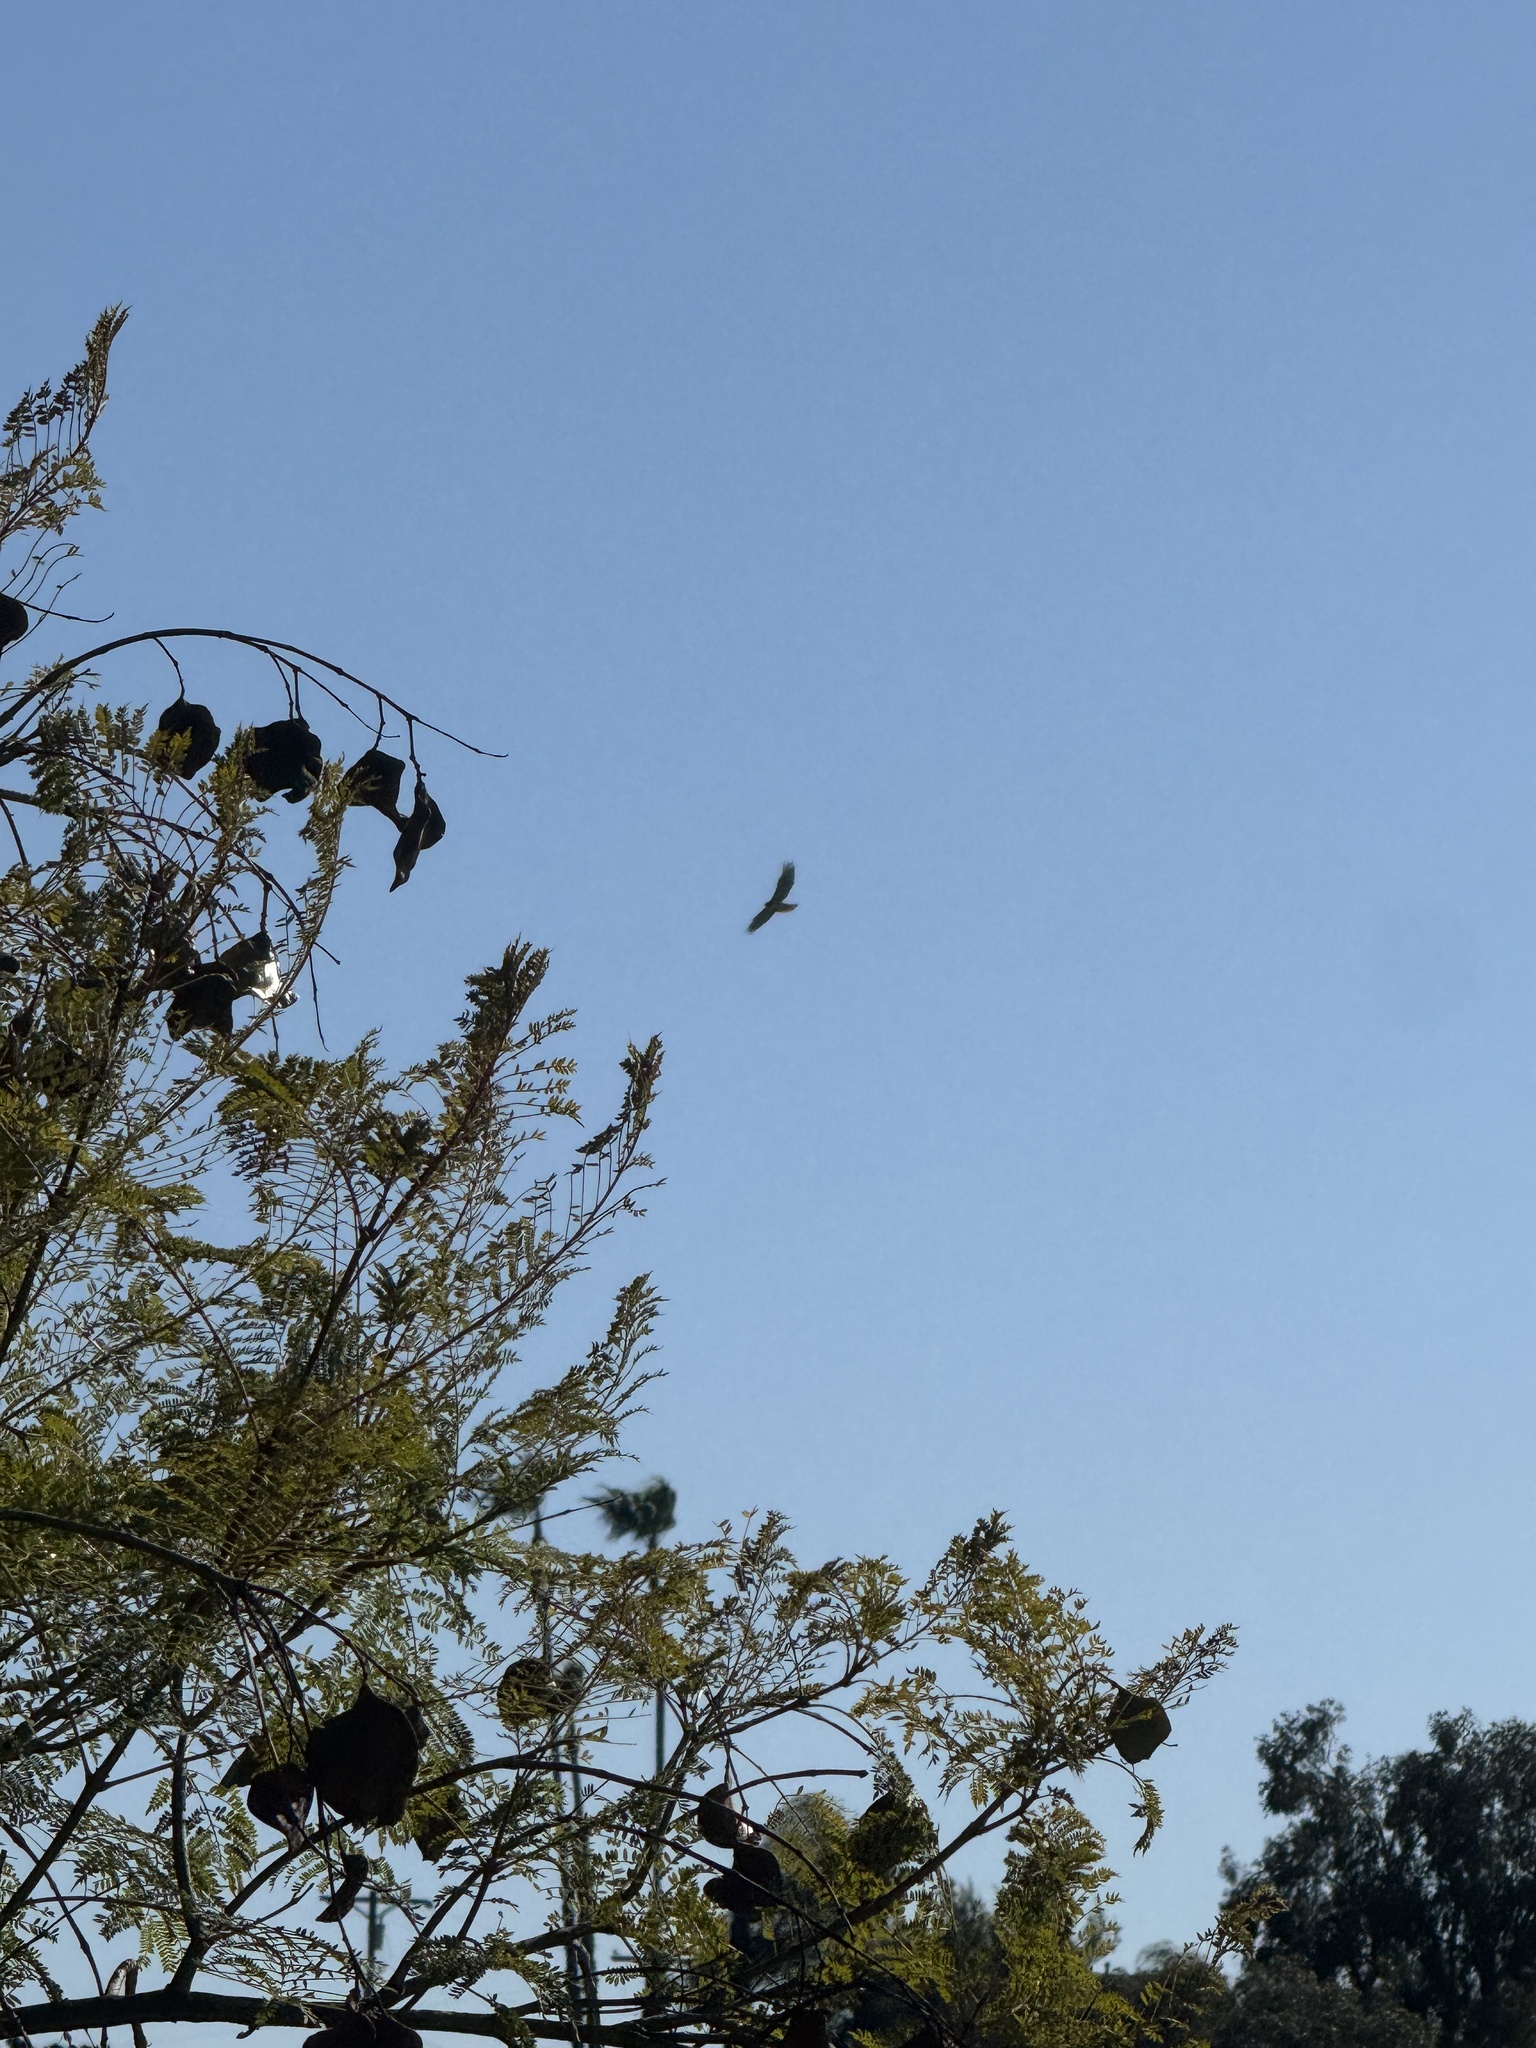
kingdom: Animalia
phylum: Chordata
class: Aves
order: Accipitriformes
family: Accipitridae
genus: Buteo
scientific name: Buteo jamaicensis
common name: Red-tailed hawk
